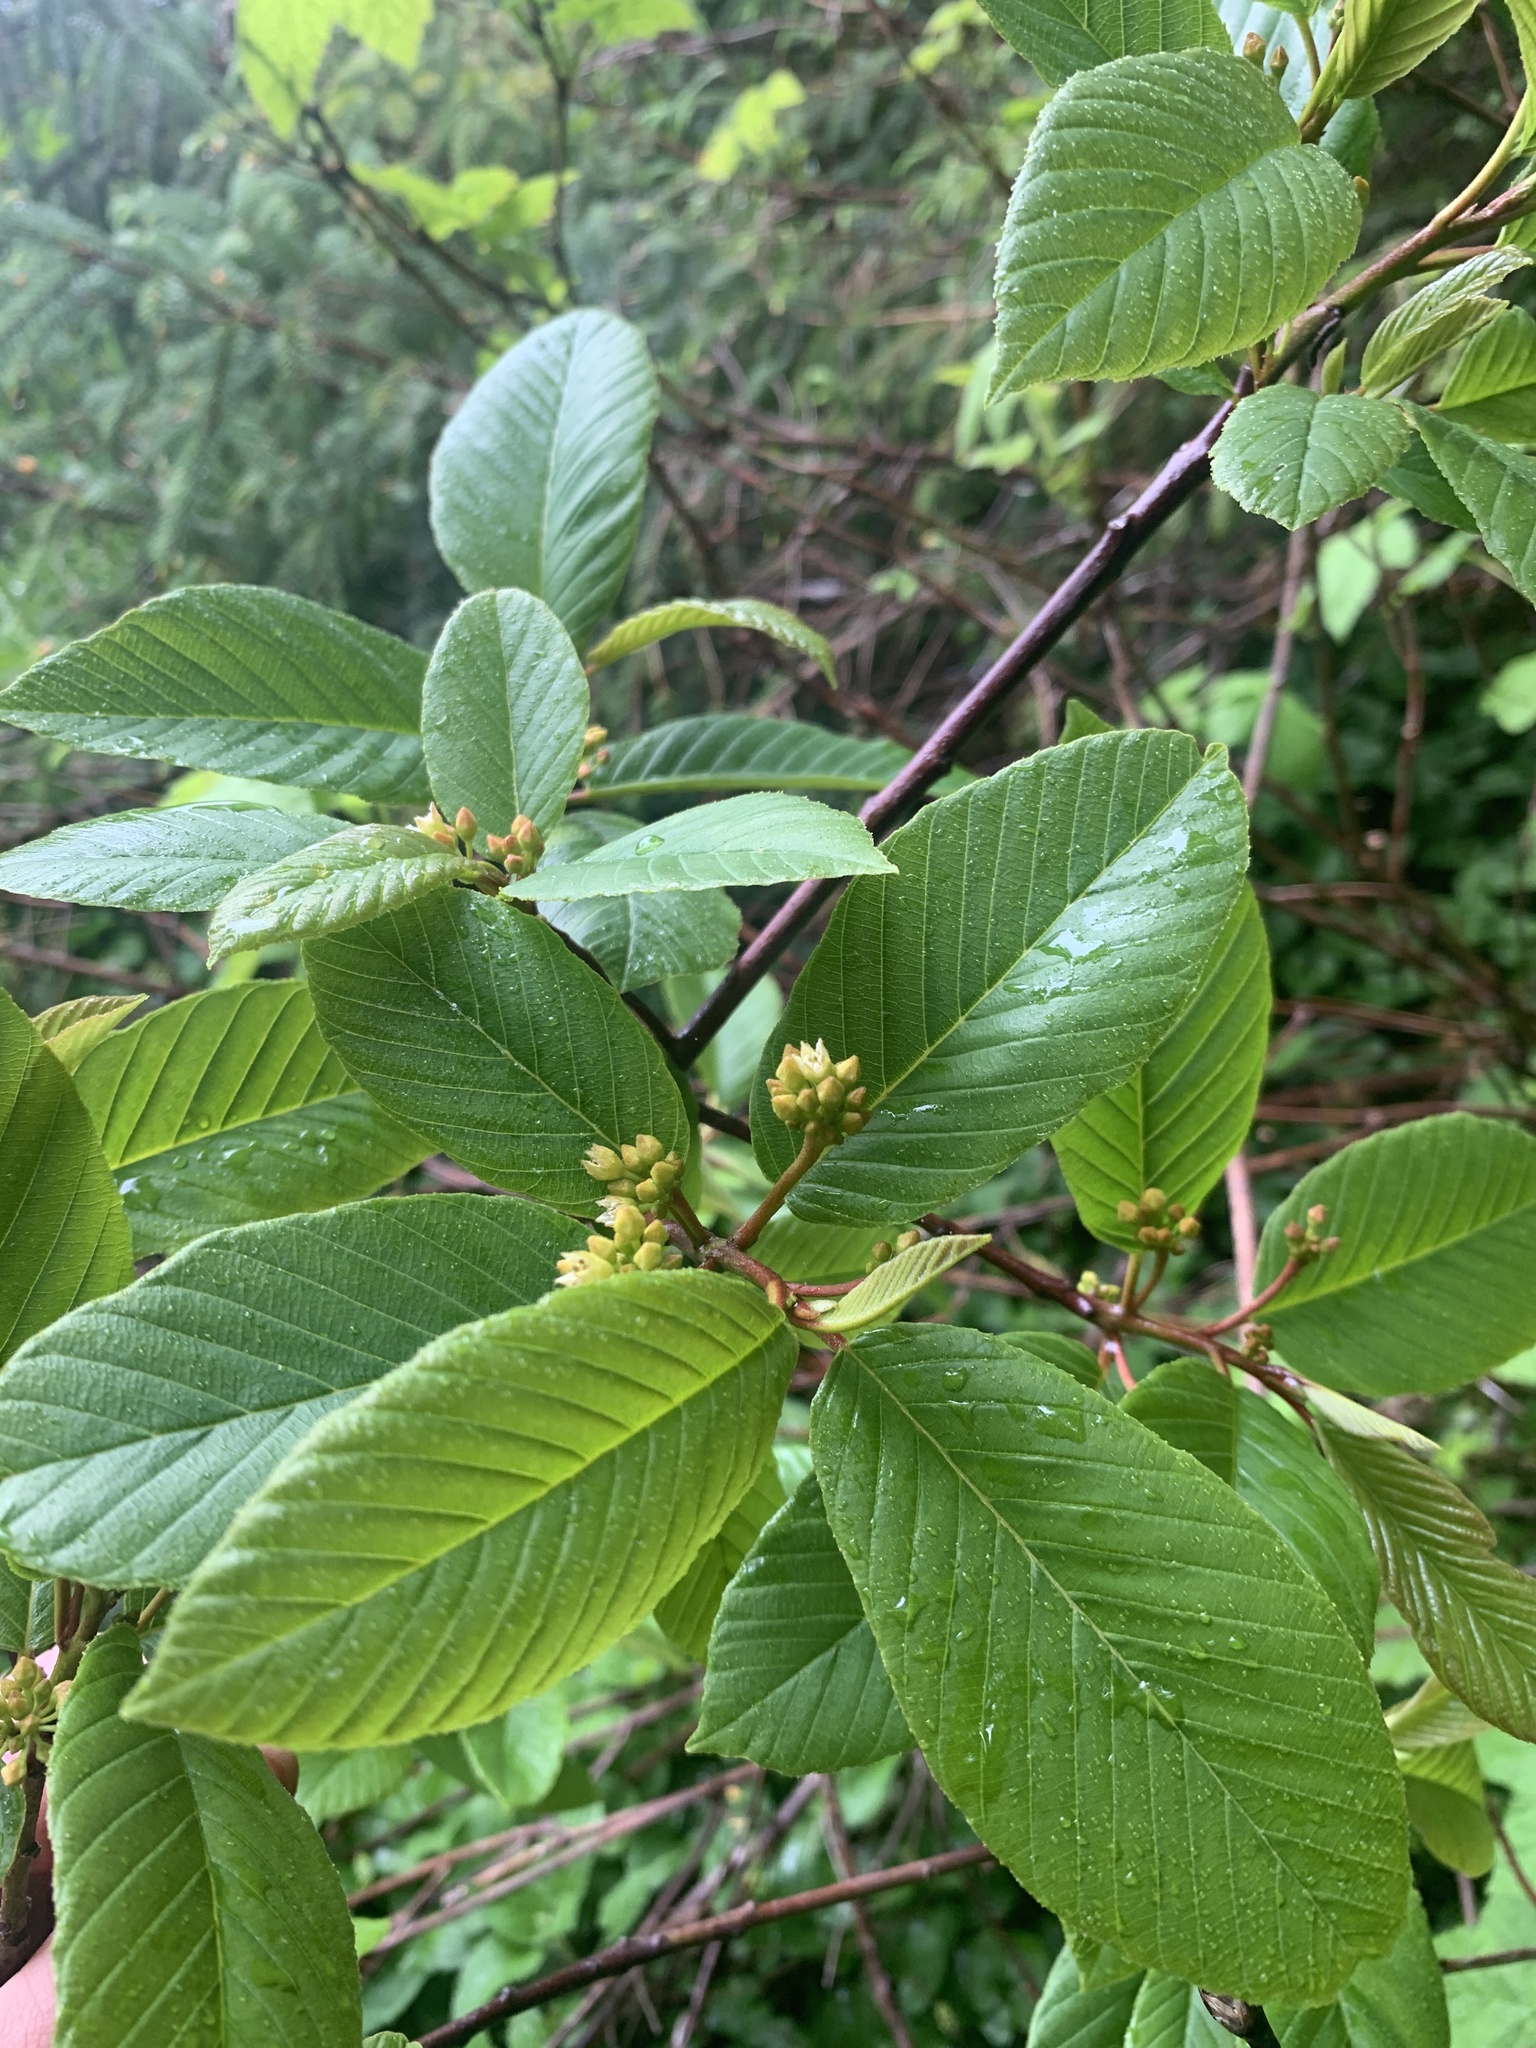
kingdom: Plantae
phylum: Tracheophyta
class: Magnoliopsida
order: Rosales
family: Rhamnaceae
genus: Frangula
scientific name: Frangula purshiana
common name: Cascara buckthorn
